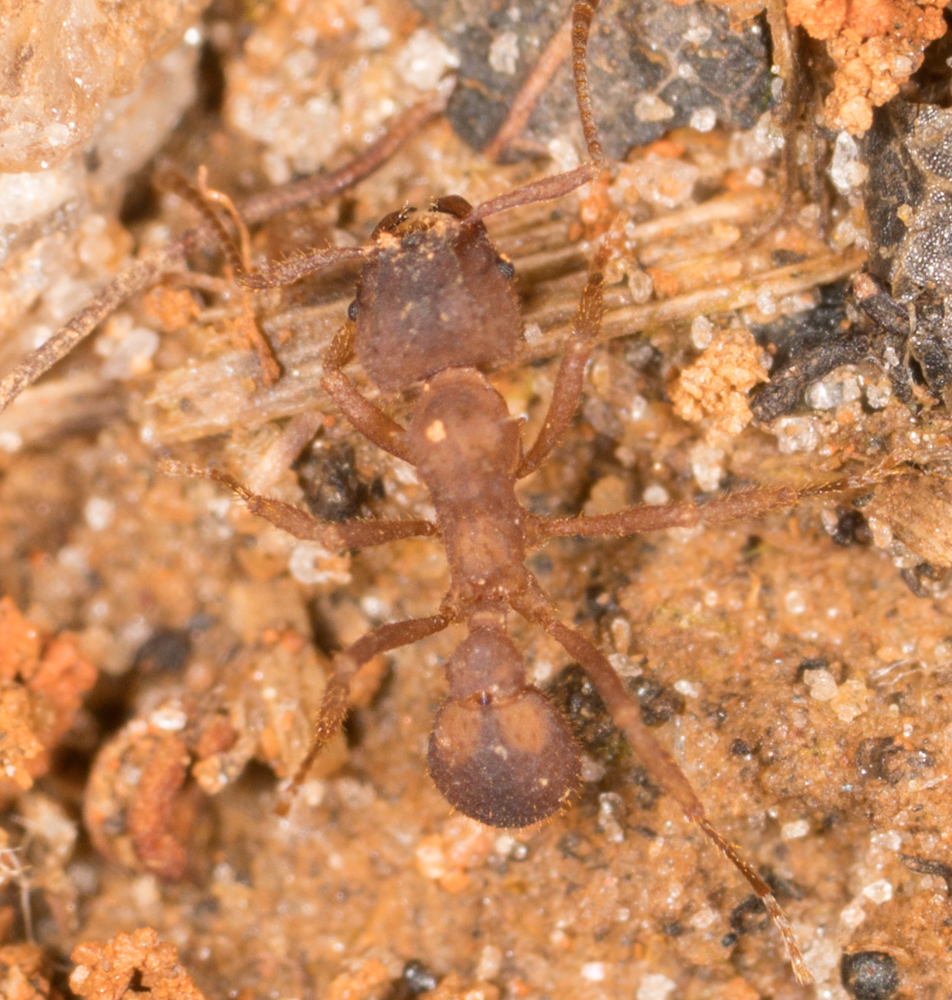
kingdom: Animalia
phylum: Arthropoda
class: Insecta
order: Hymenoptera
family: Formicidae
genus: Trachymyrmex
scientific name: Trachymyrmex septentrionalis
